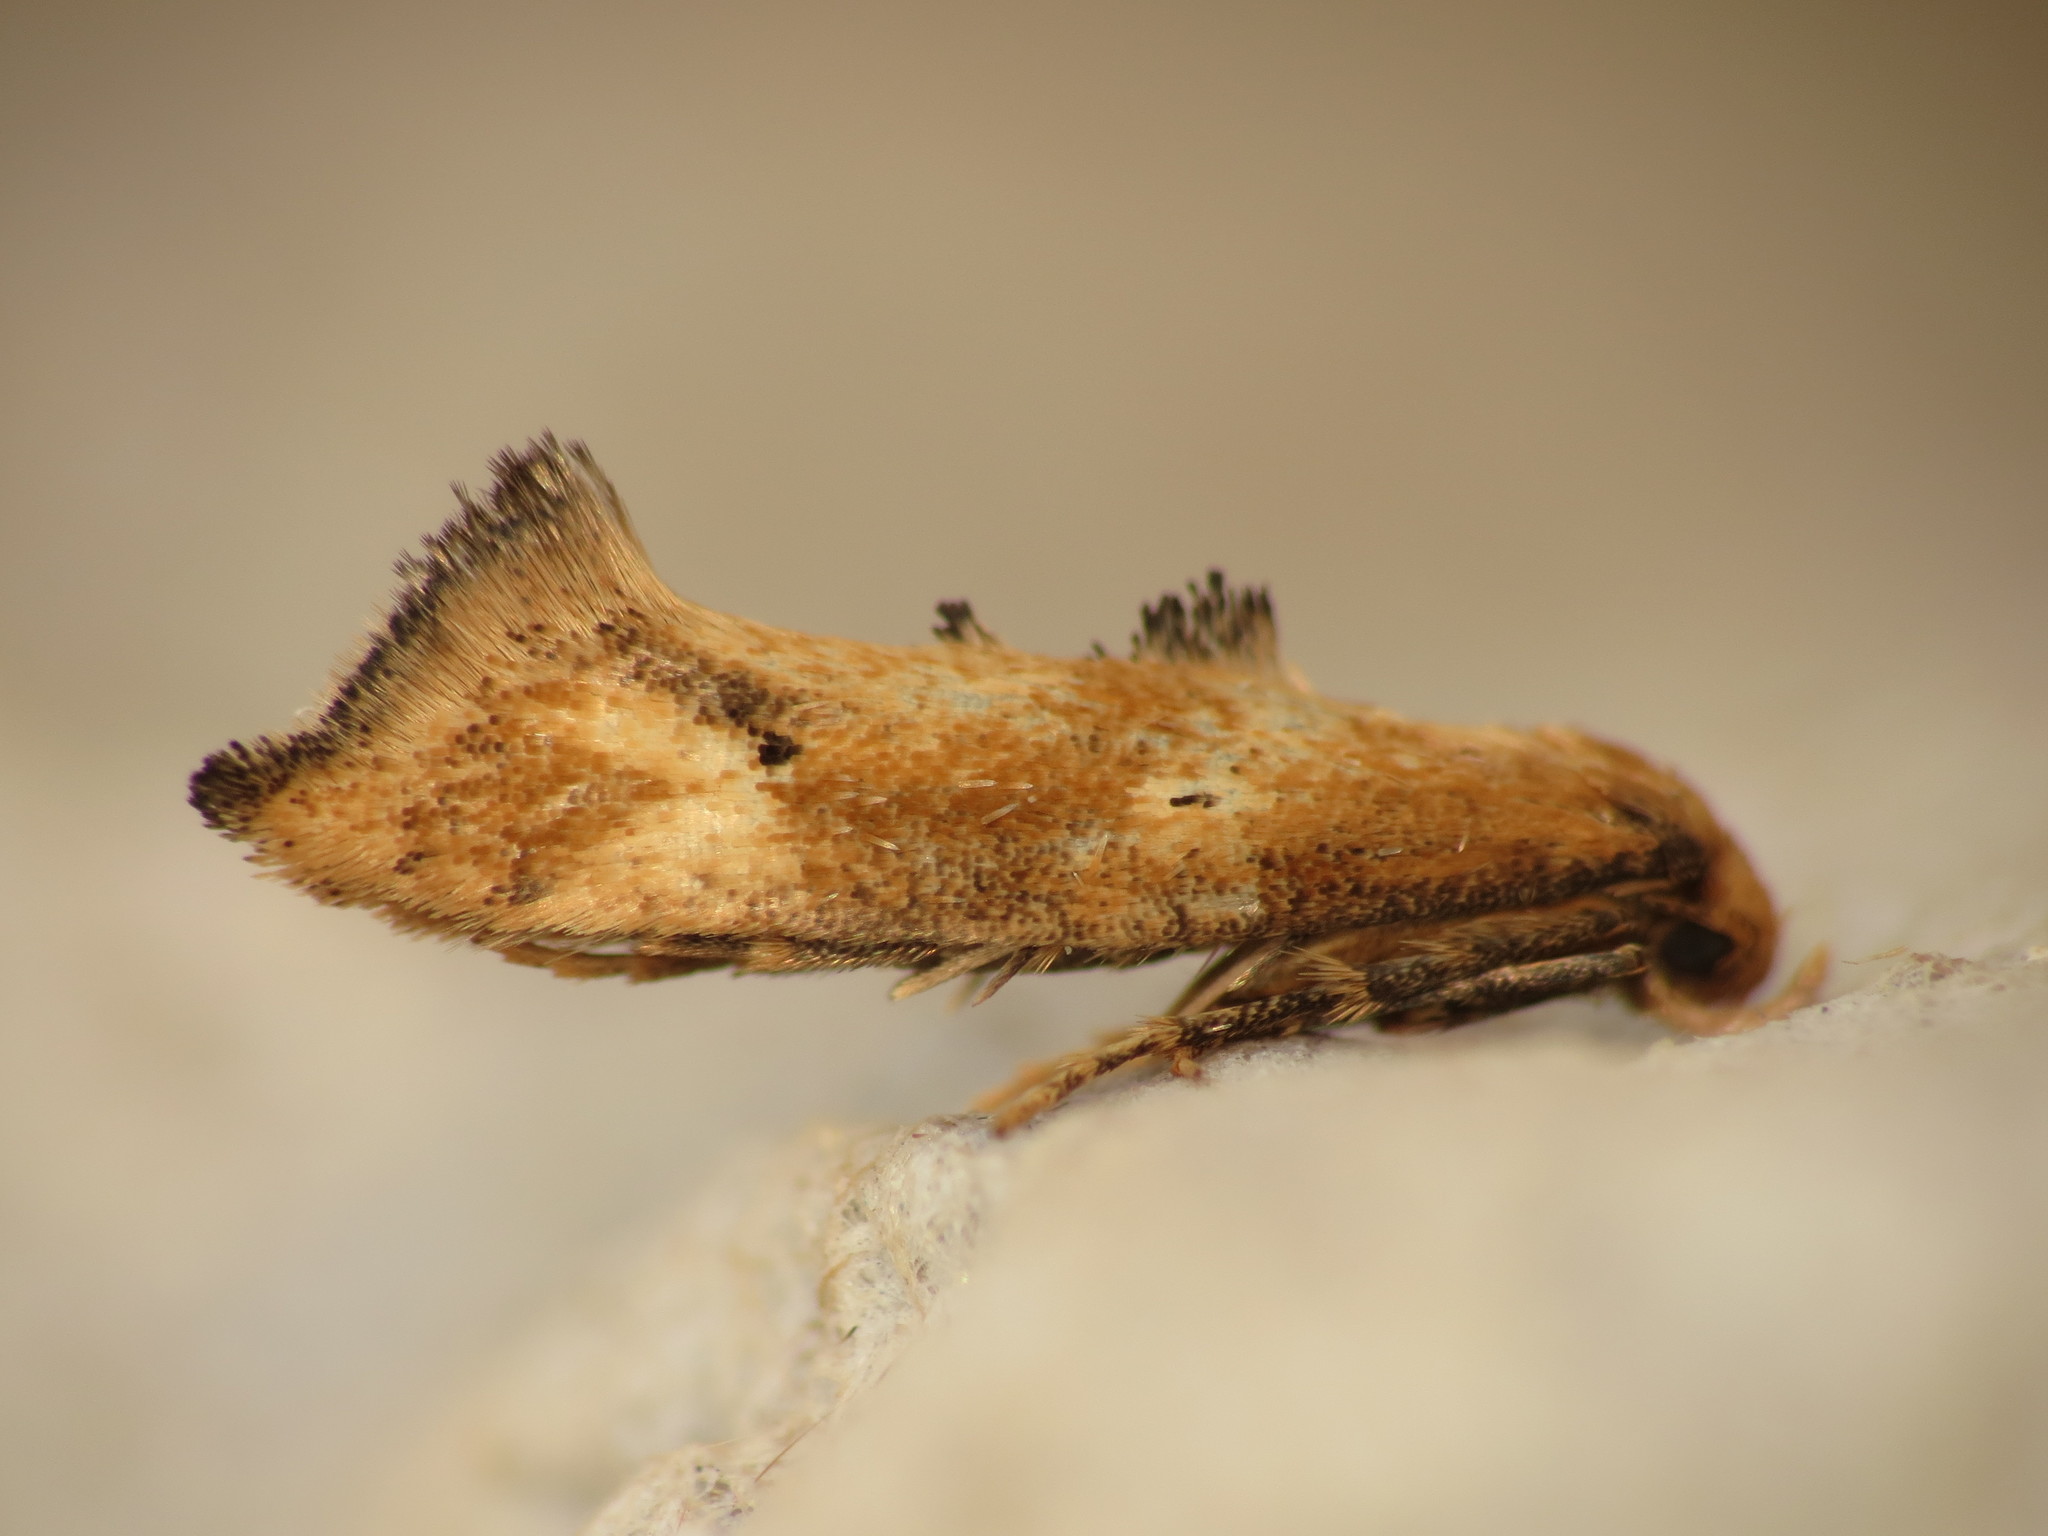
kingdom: Animalia
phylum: Arthropoda
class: Insecta
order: Lepidoptera
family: Epermeniidae
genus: Epermenia
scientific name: Epermenia illigerella
